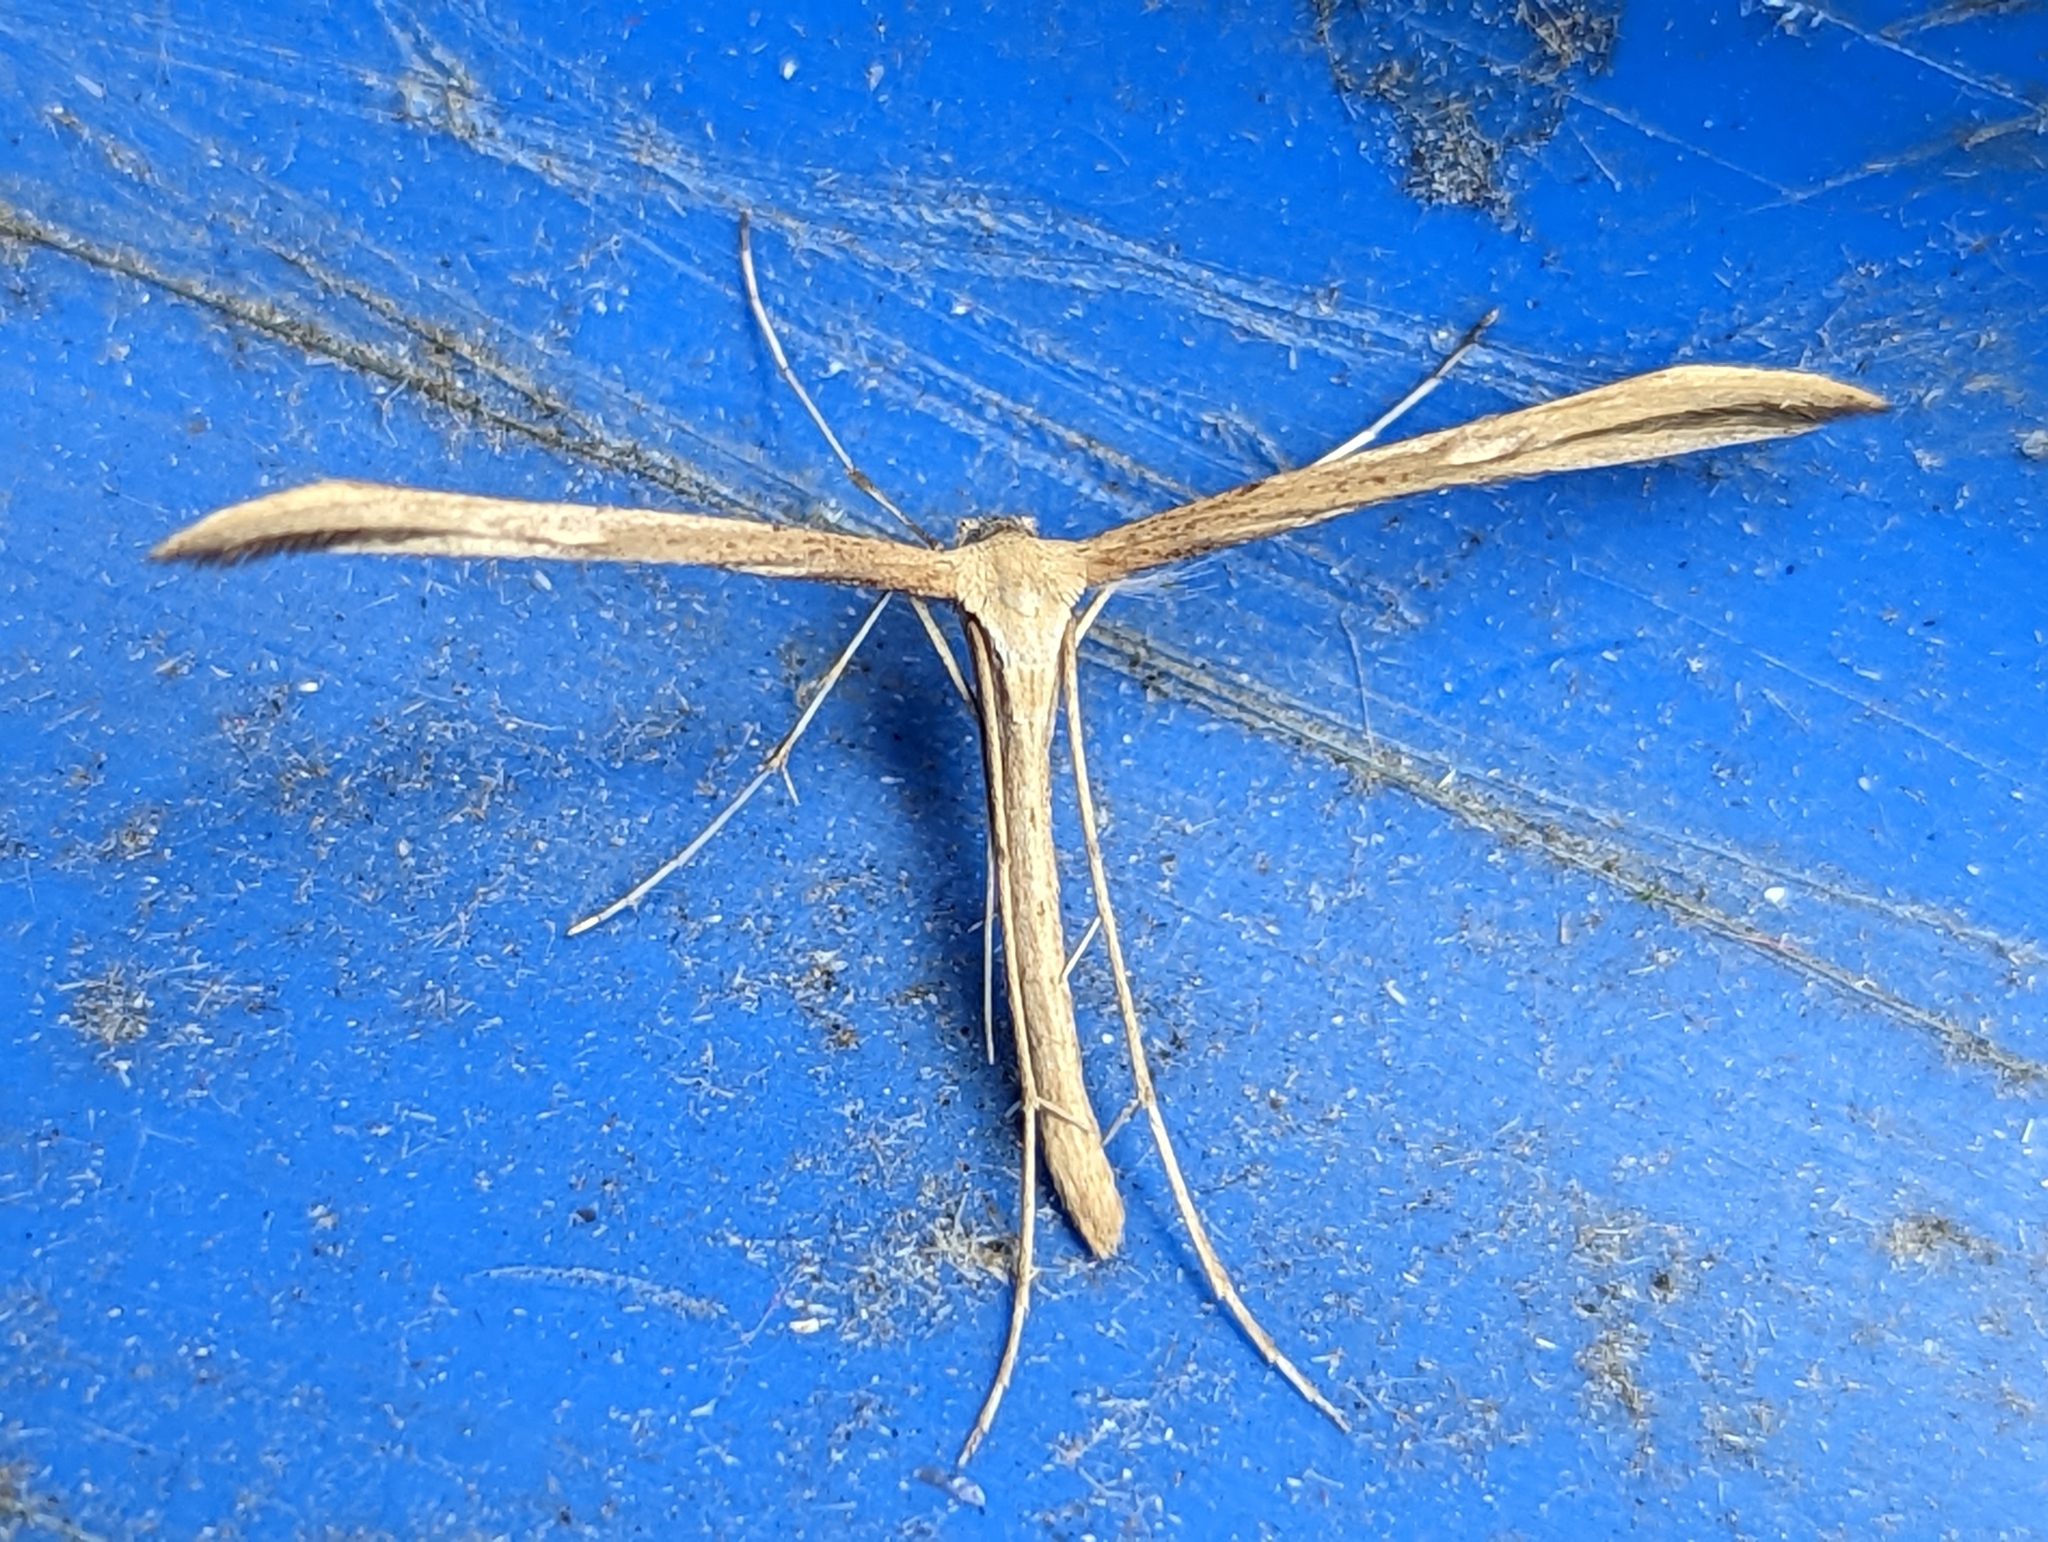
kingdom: Animalia
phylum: Arthropoda
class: Insecta
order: Lepidoptera
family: Pterophoridae
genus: Emmelina
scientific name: Emmelina monodactyla
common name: Common plume
